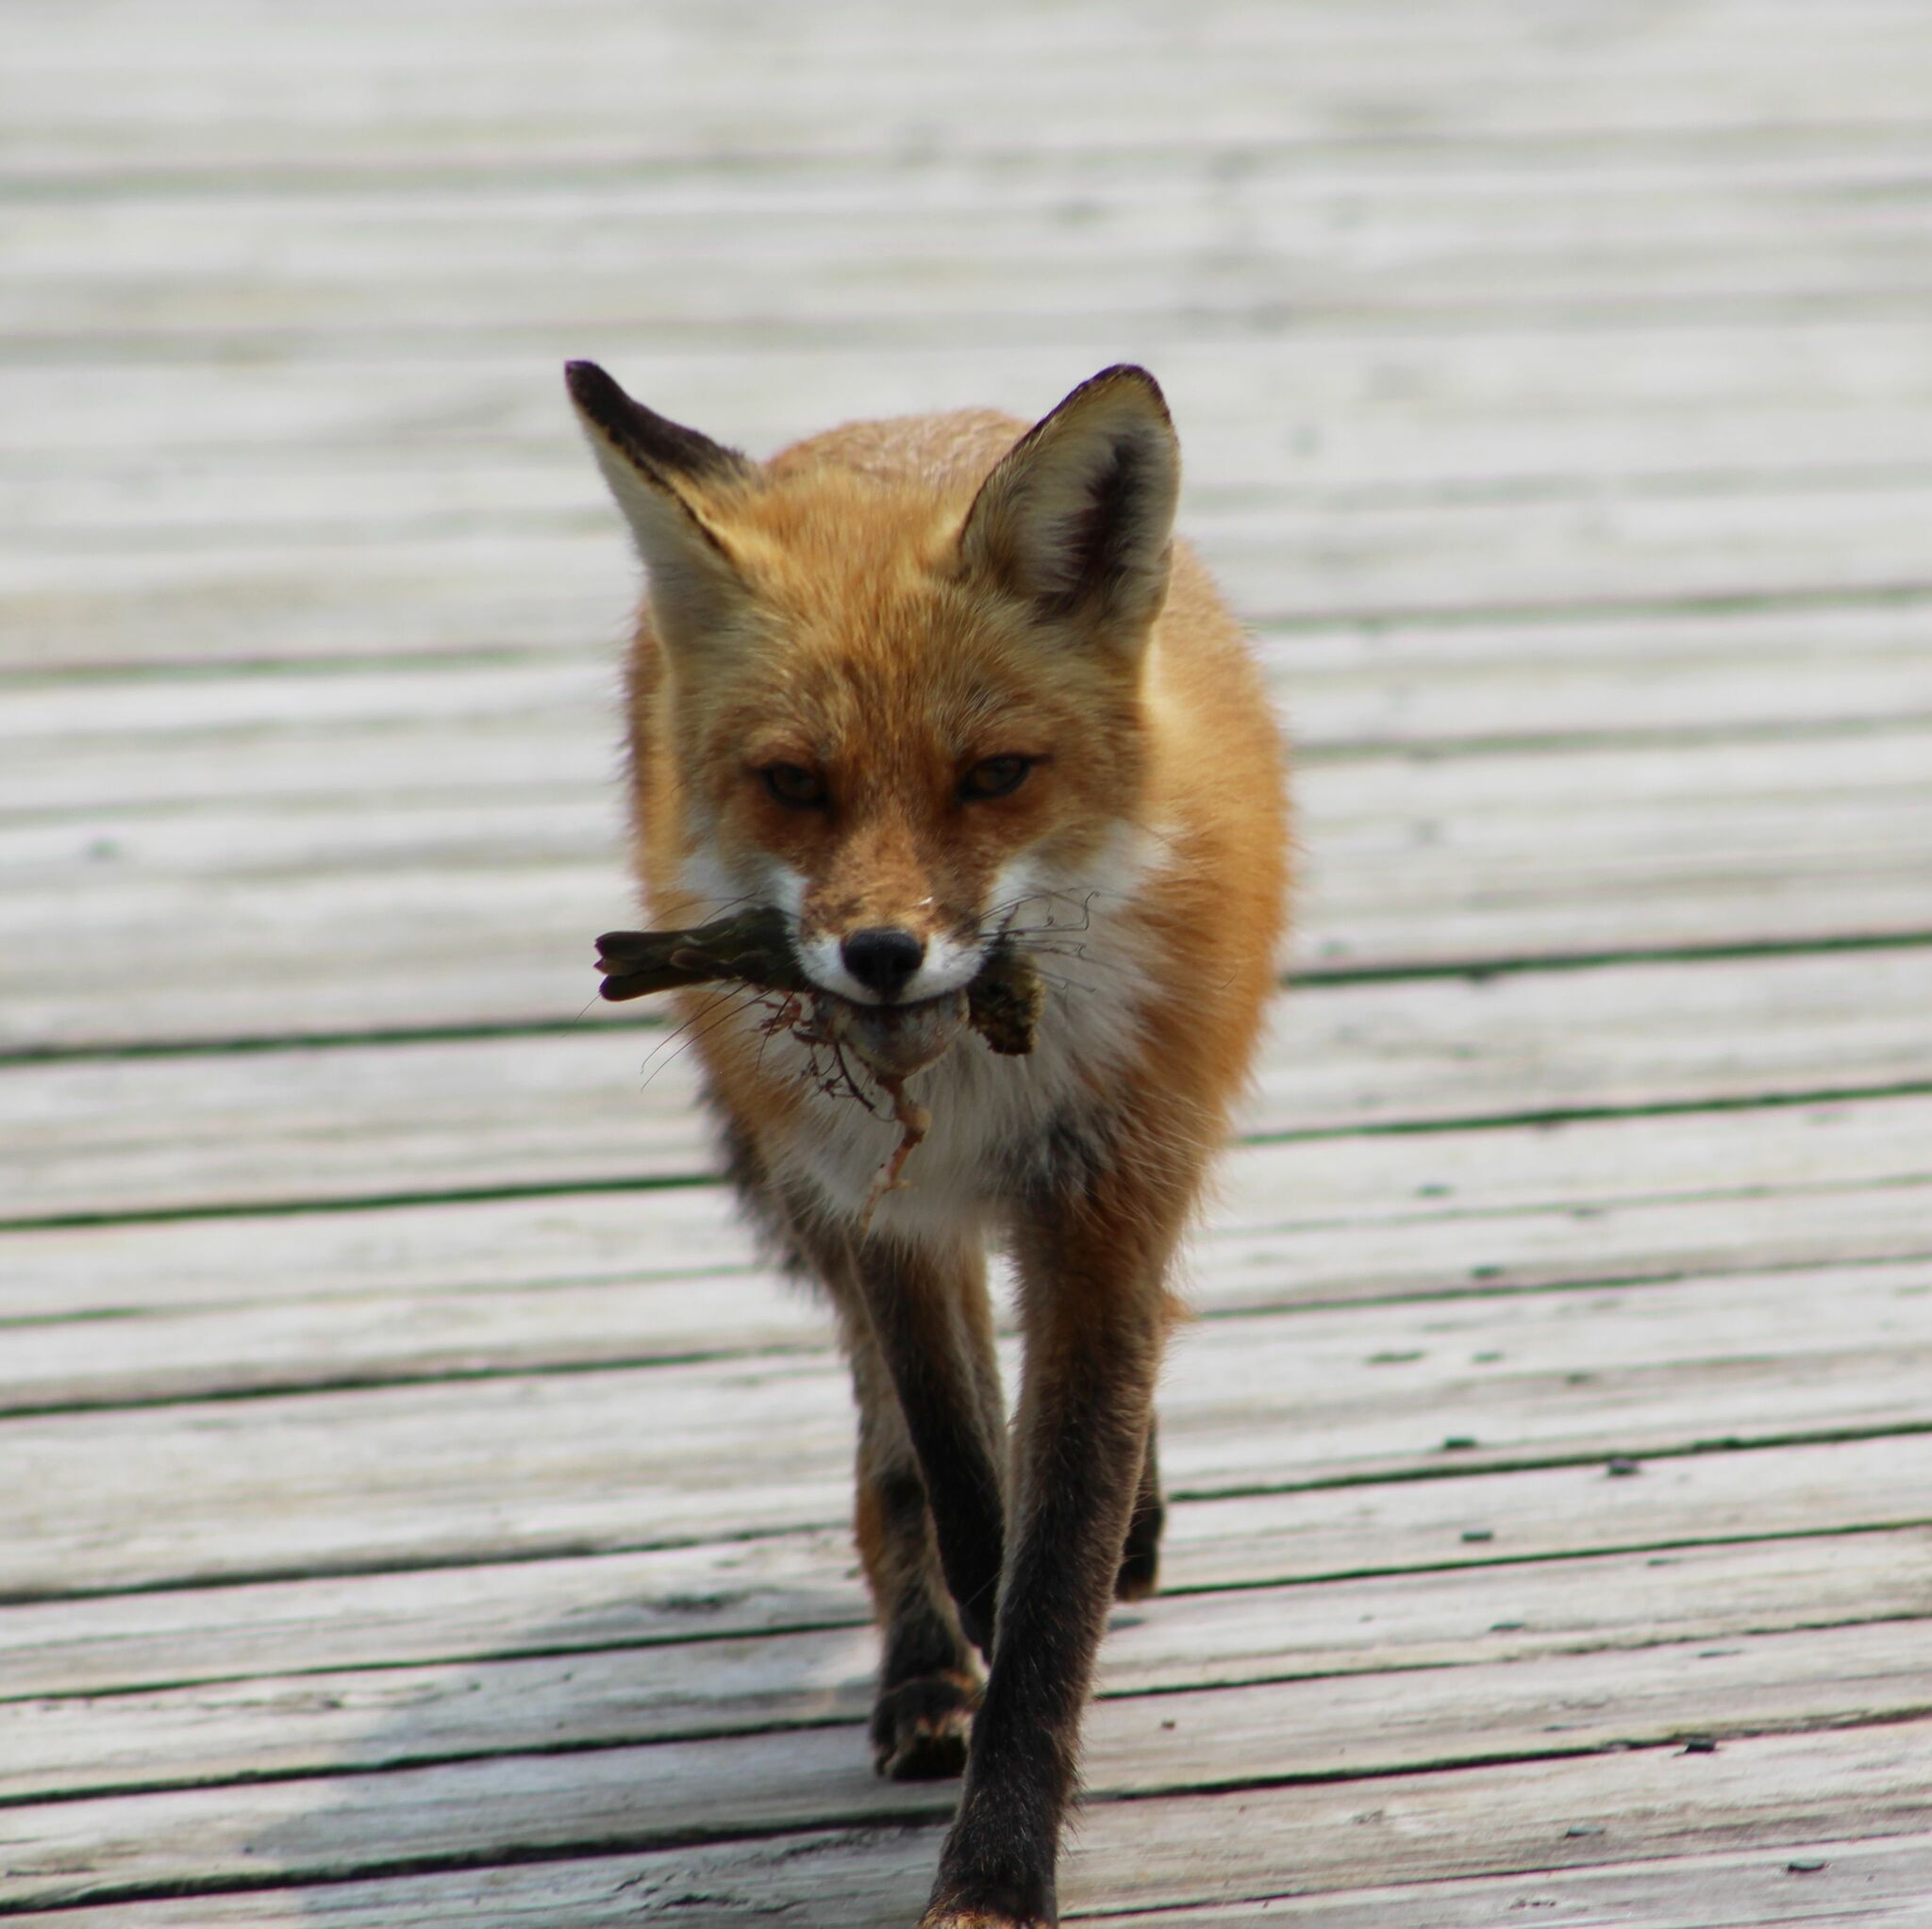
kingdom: Animalia
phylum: Chordata
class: Mammalia
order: Carnivora
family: Canidae
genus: Vulpes
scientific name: Vulpes vulpes
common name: Red fox
